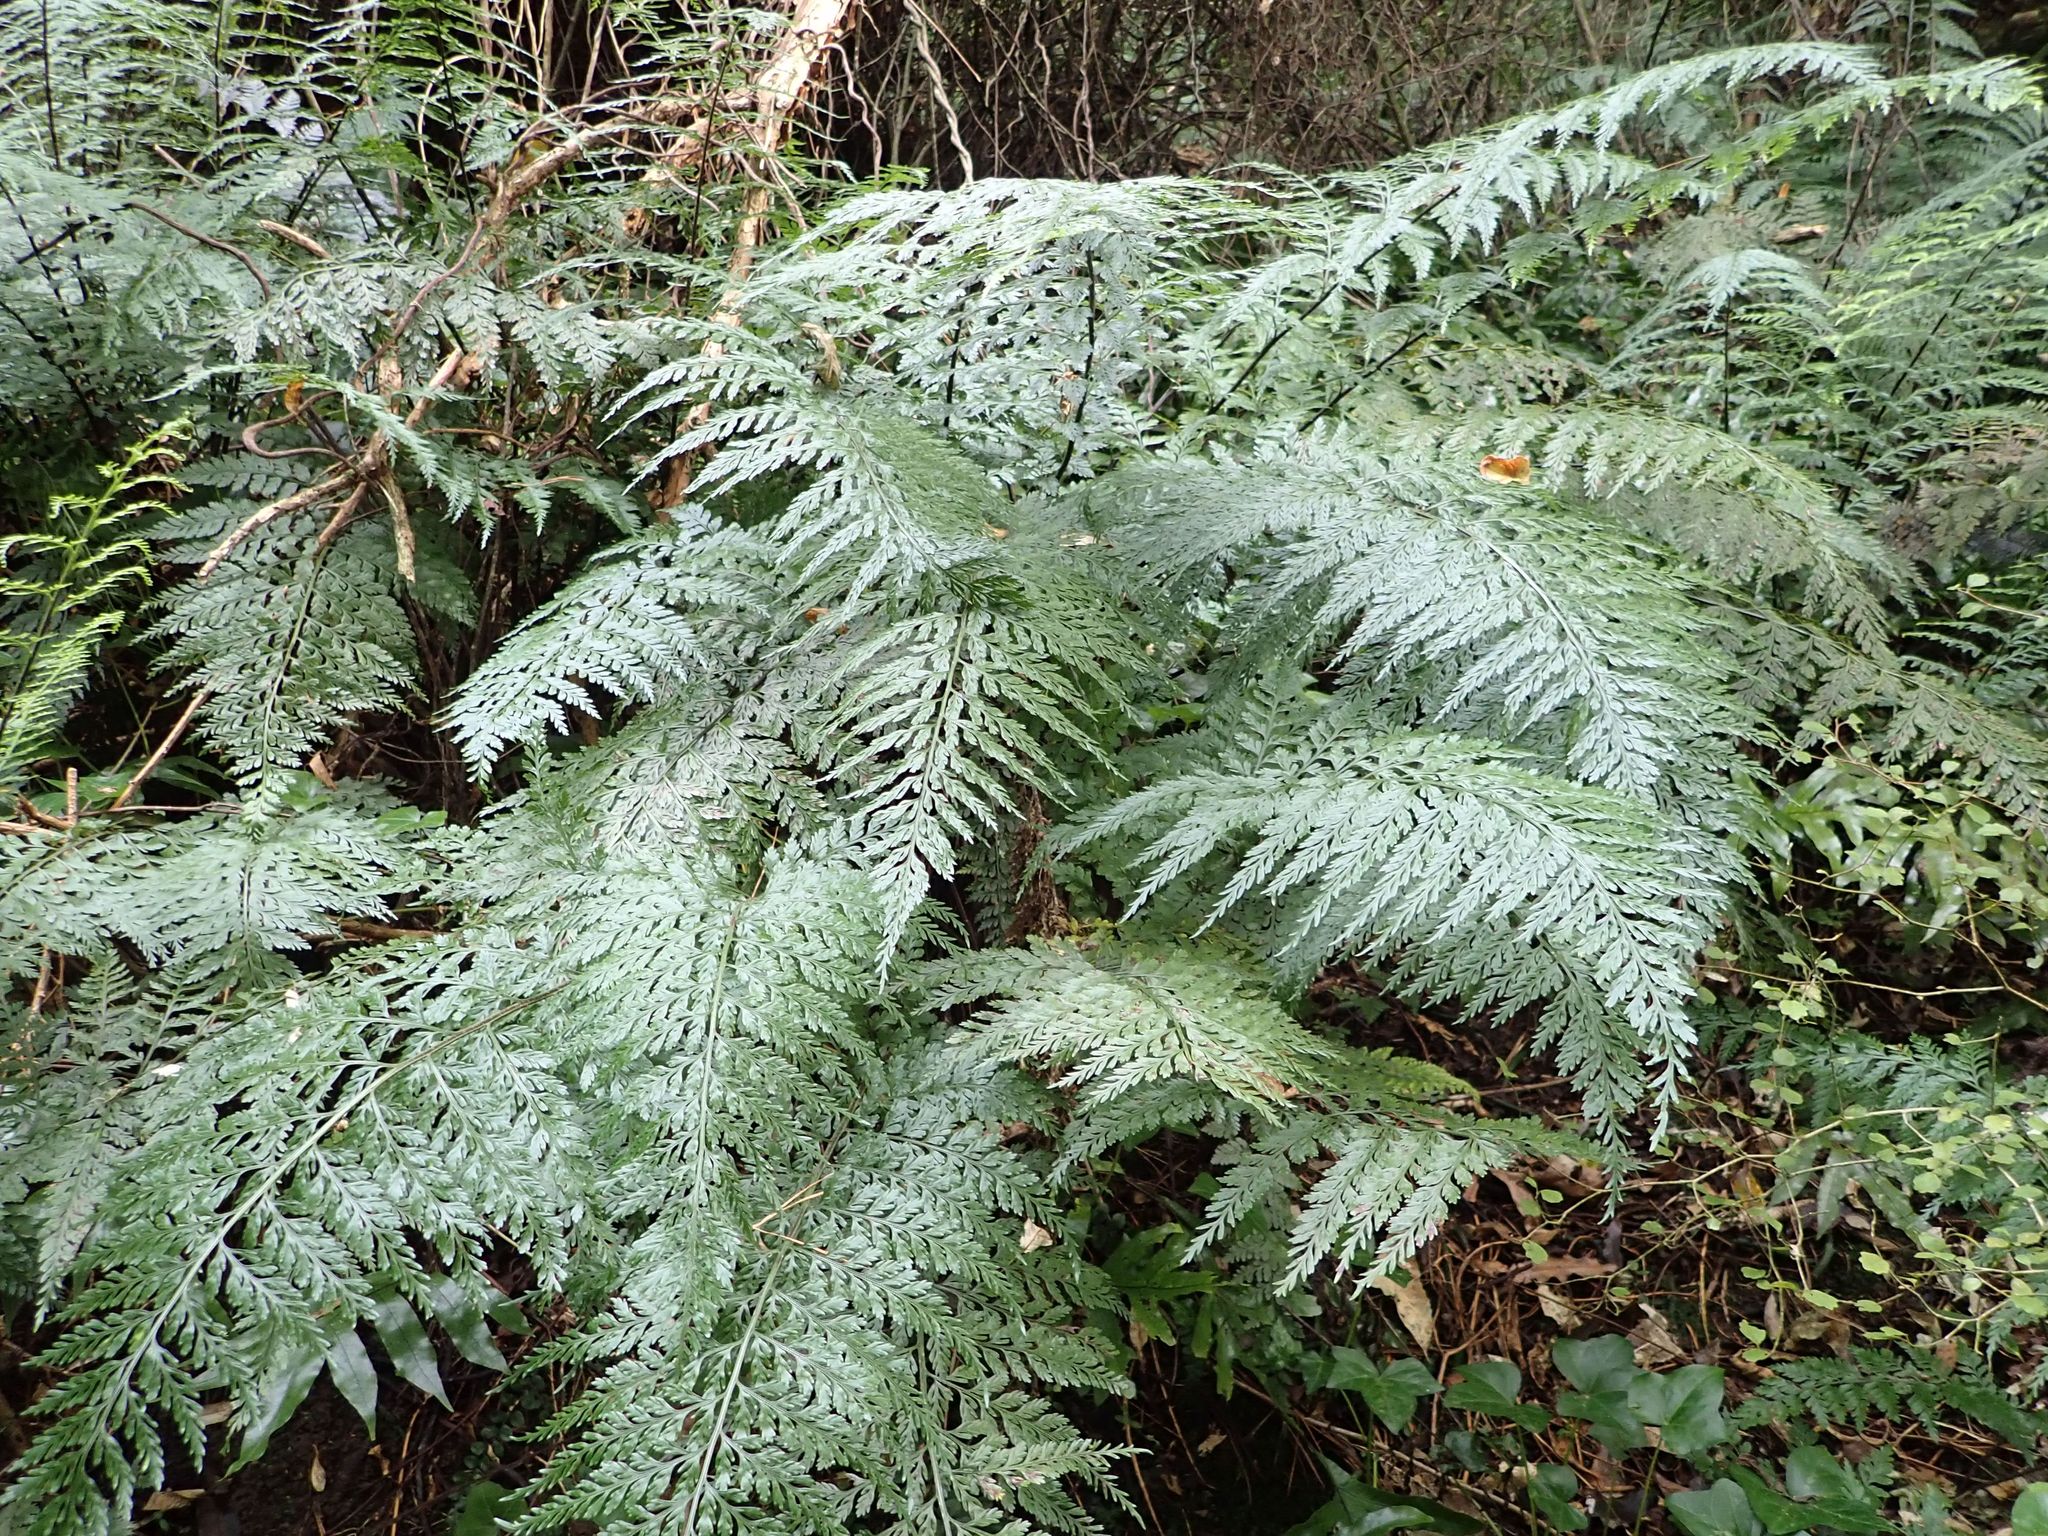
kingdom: Plantae
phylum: Tracheophyta
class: Polypodiopsida
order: Polypodiales
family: Aspleniaceae
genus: Asplenium
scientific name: Asplenium
